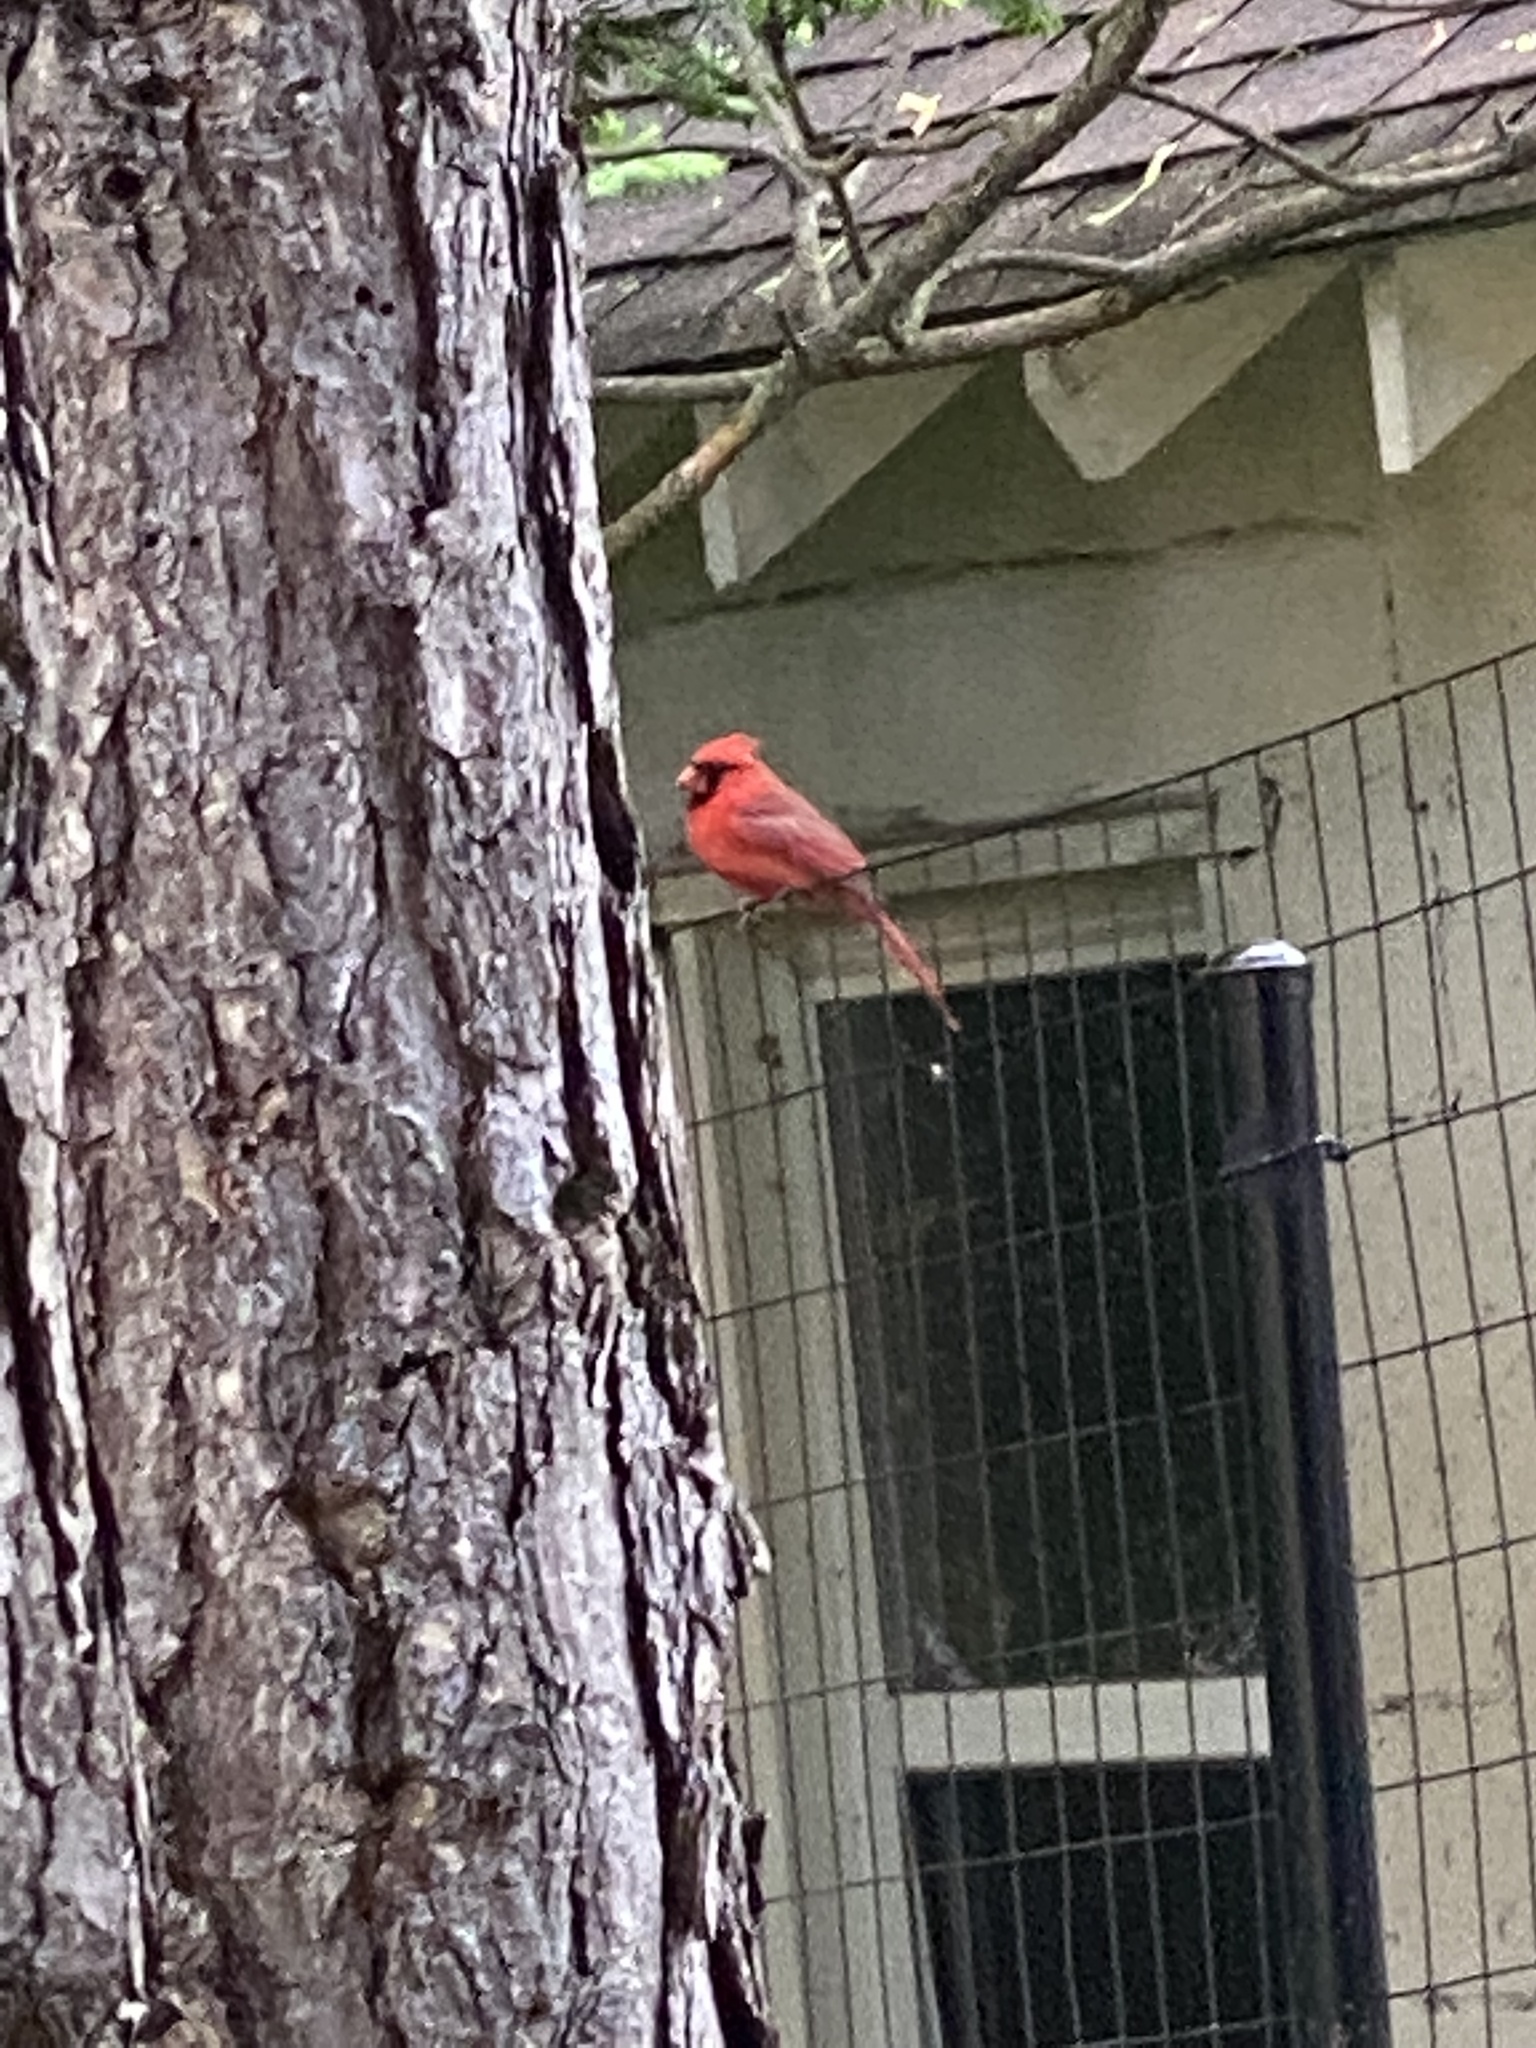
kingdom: Animalia
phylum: Chordata
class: Aves
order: Passeriformes
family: Cardinalidae
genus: Cardinalis
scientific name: Cardinalis cardinalis
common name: Northern cardinal
